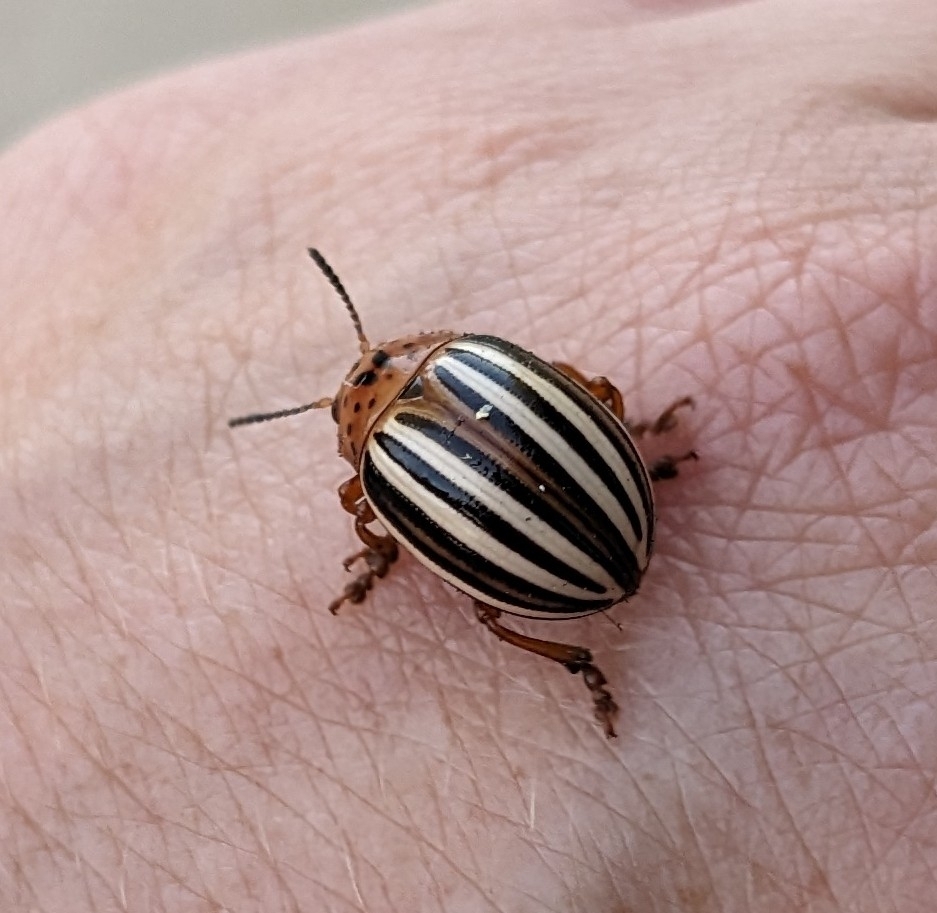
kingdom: Animalia
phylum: Arthropoda
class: Insecta
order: Coleoptera
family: Chrysomelidae
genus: Leptinotarsa
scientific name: Leptinotarsa juncta
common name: False potato beetle
